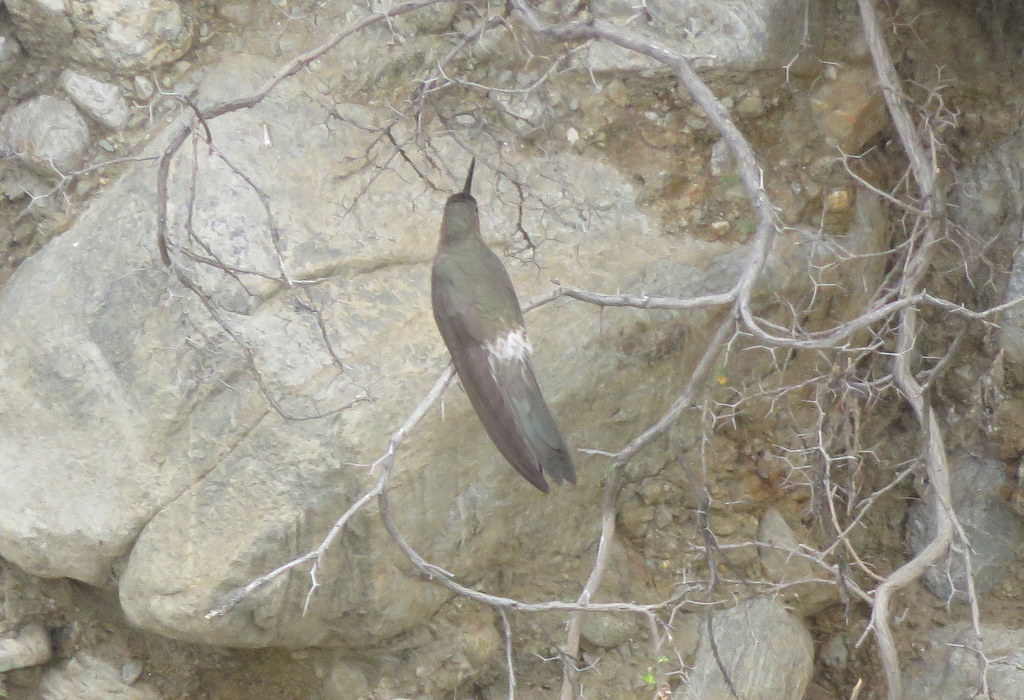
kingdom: Animalia
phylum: Chordata
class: Aves
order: Apodiformes
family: Trochilidae
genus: Patagona
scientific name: Patagona gigas
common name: Giant hummingbird
